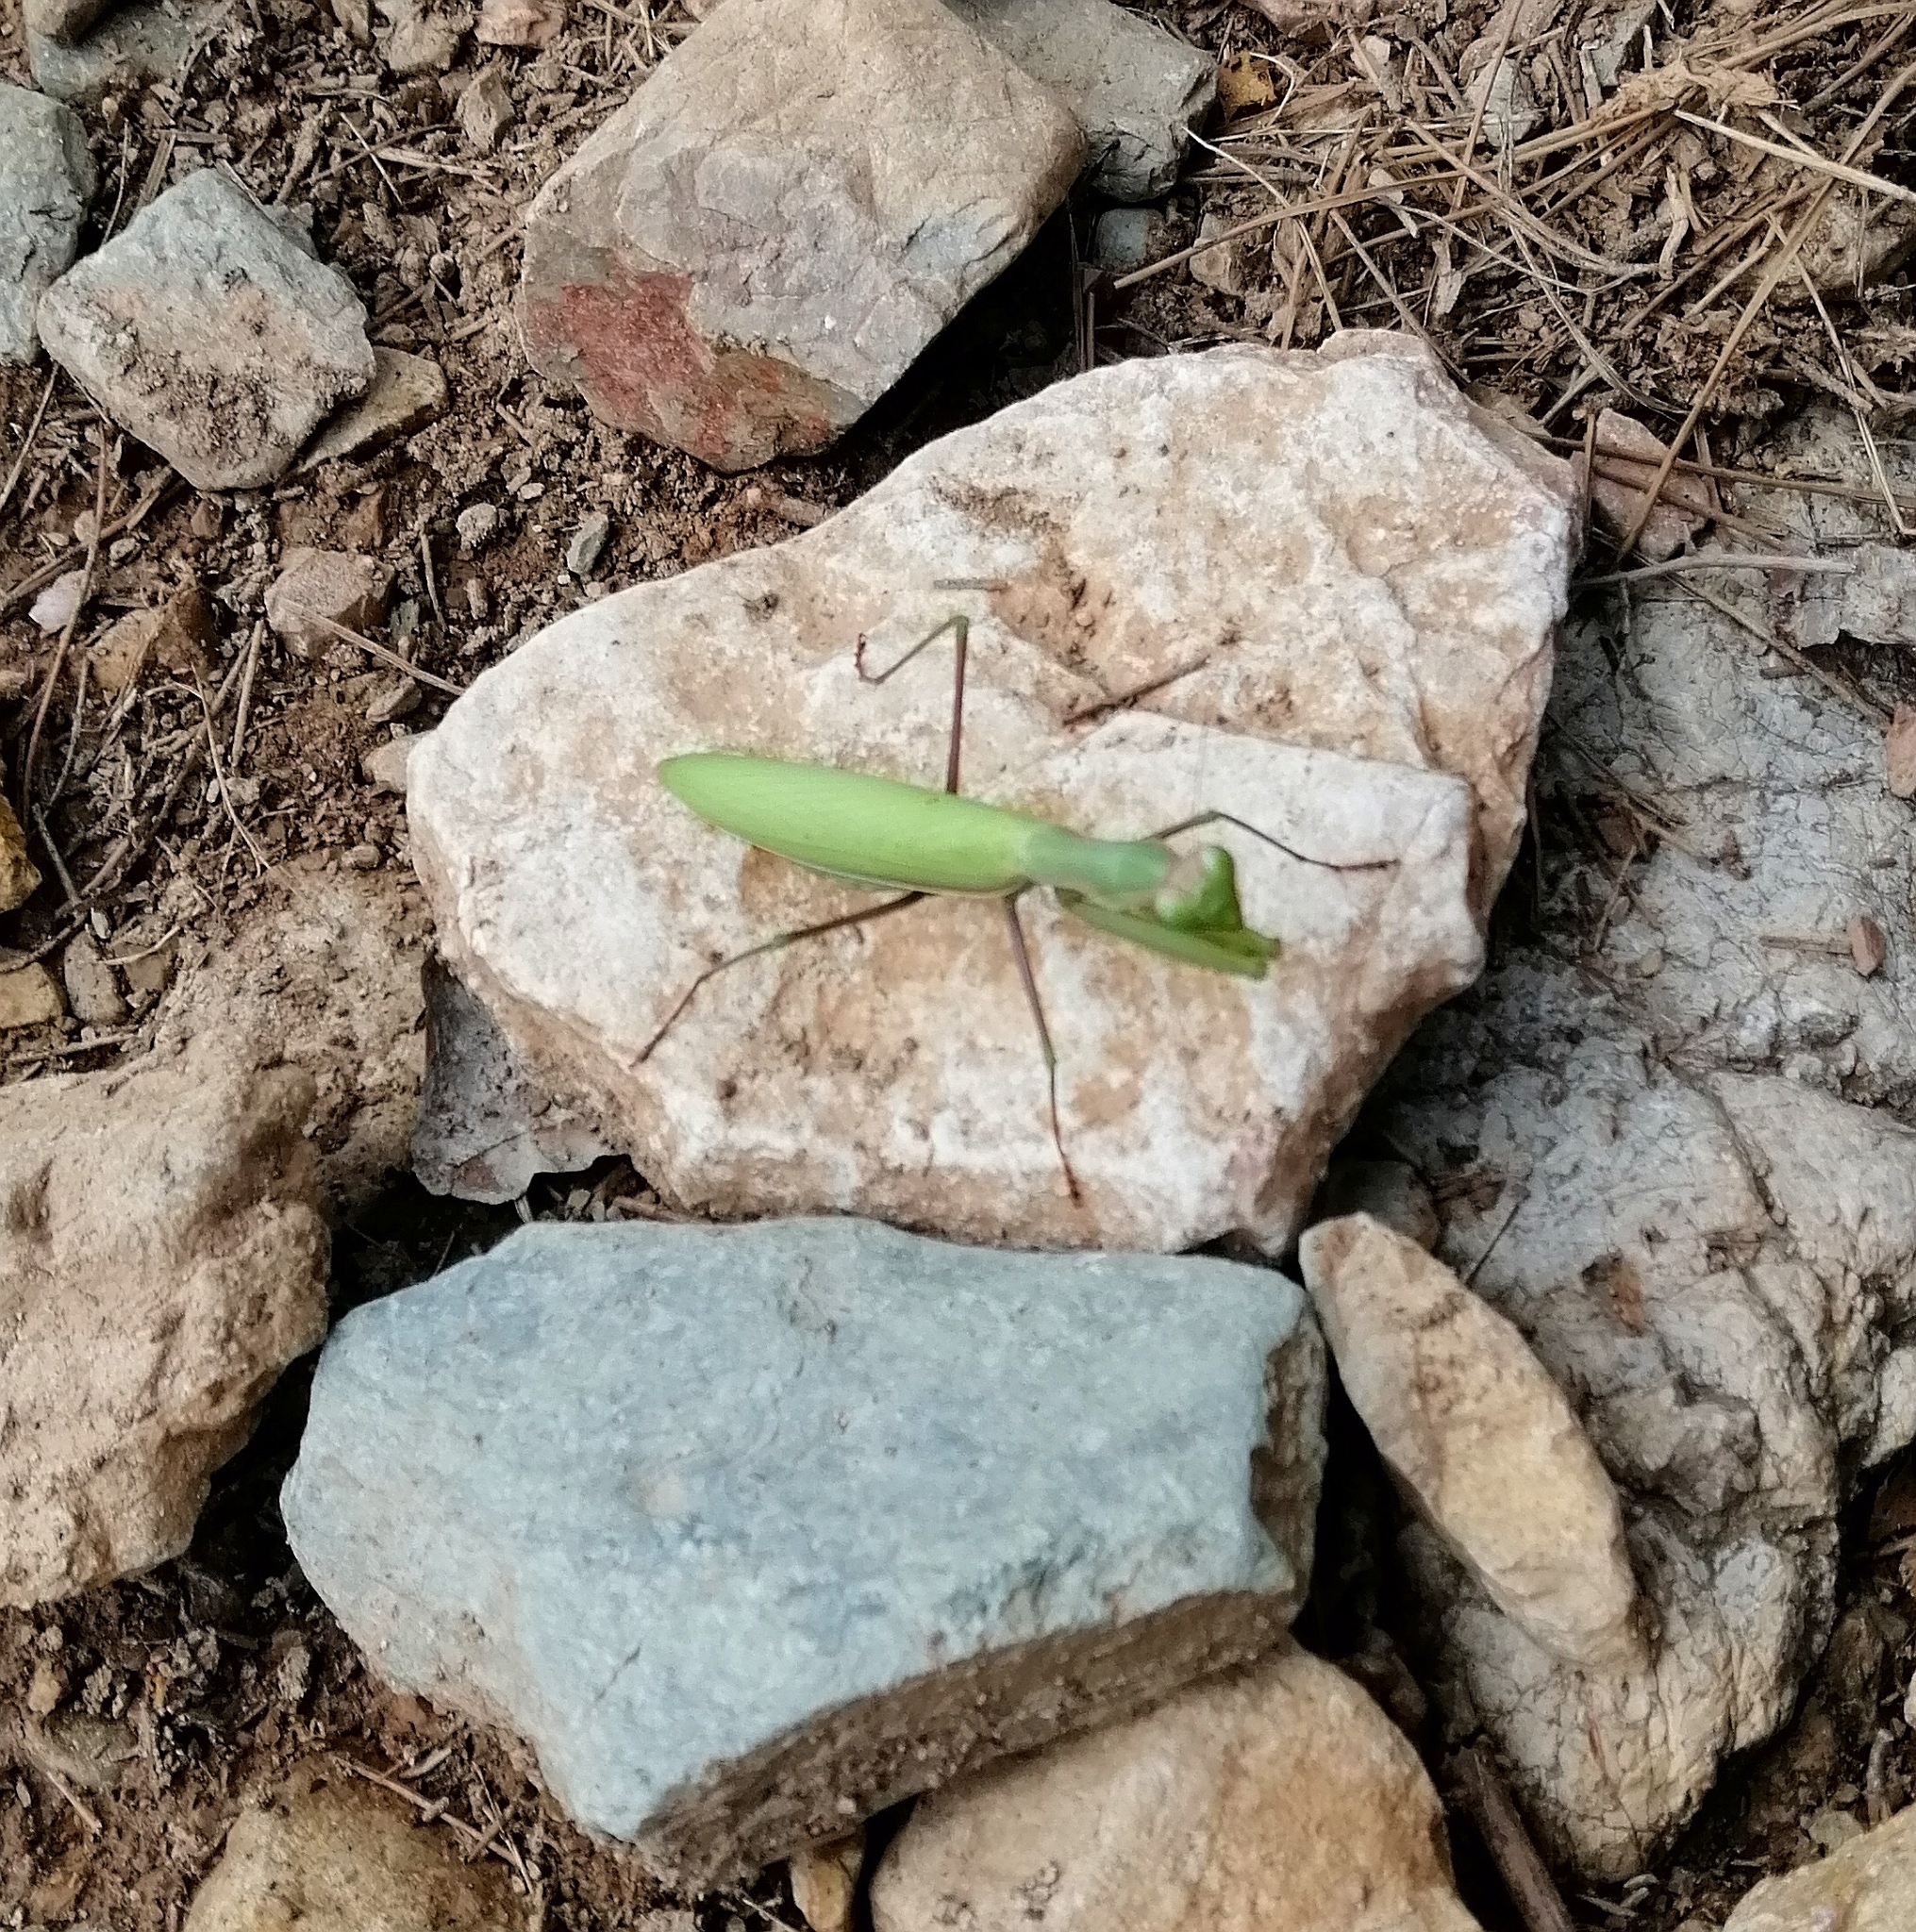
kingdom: Animalia
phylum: Arthropoda
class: Insecta
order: Mantodea
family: Mantidae
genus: Mantis
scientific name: Mantis religiosa
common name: Praying mantis
